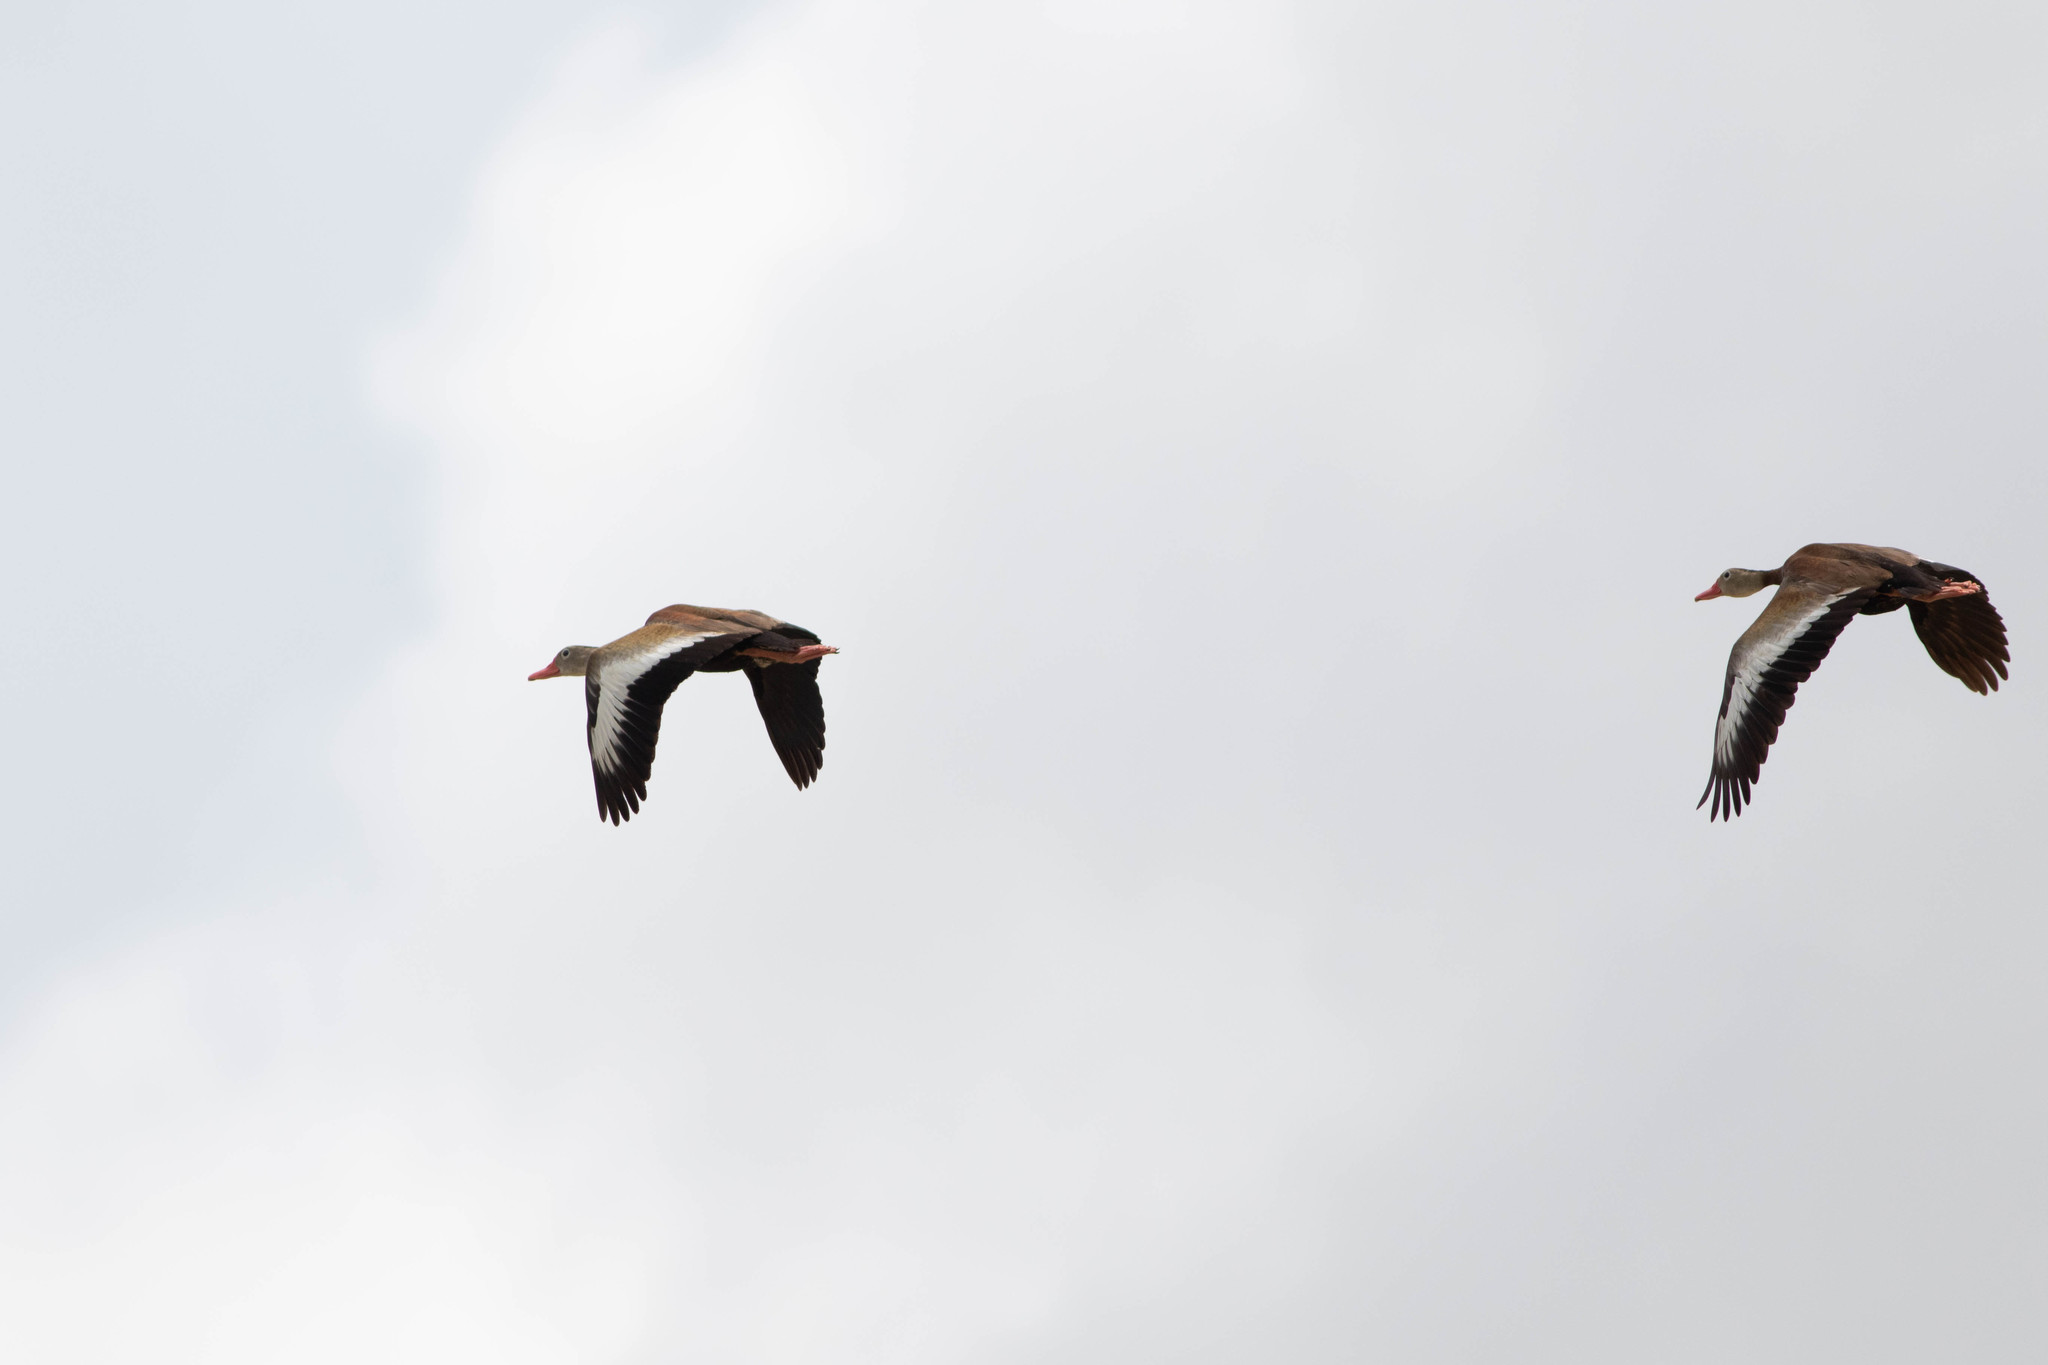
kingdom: Animalia
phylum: Chordata
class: Aves
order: Anseriformes
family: Anatidae
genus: Dendrocygna
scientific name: Dendrocygna autumnalis
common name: Black-bellied whistling duck
